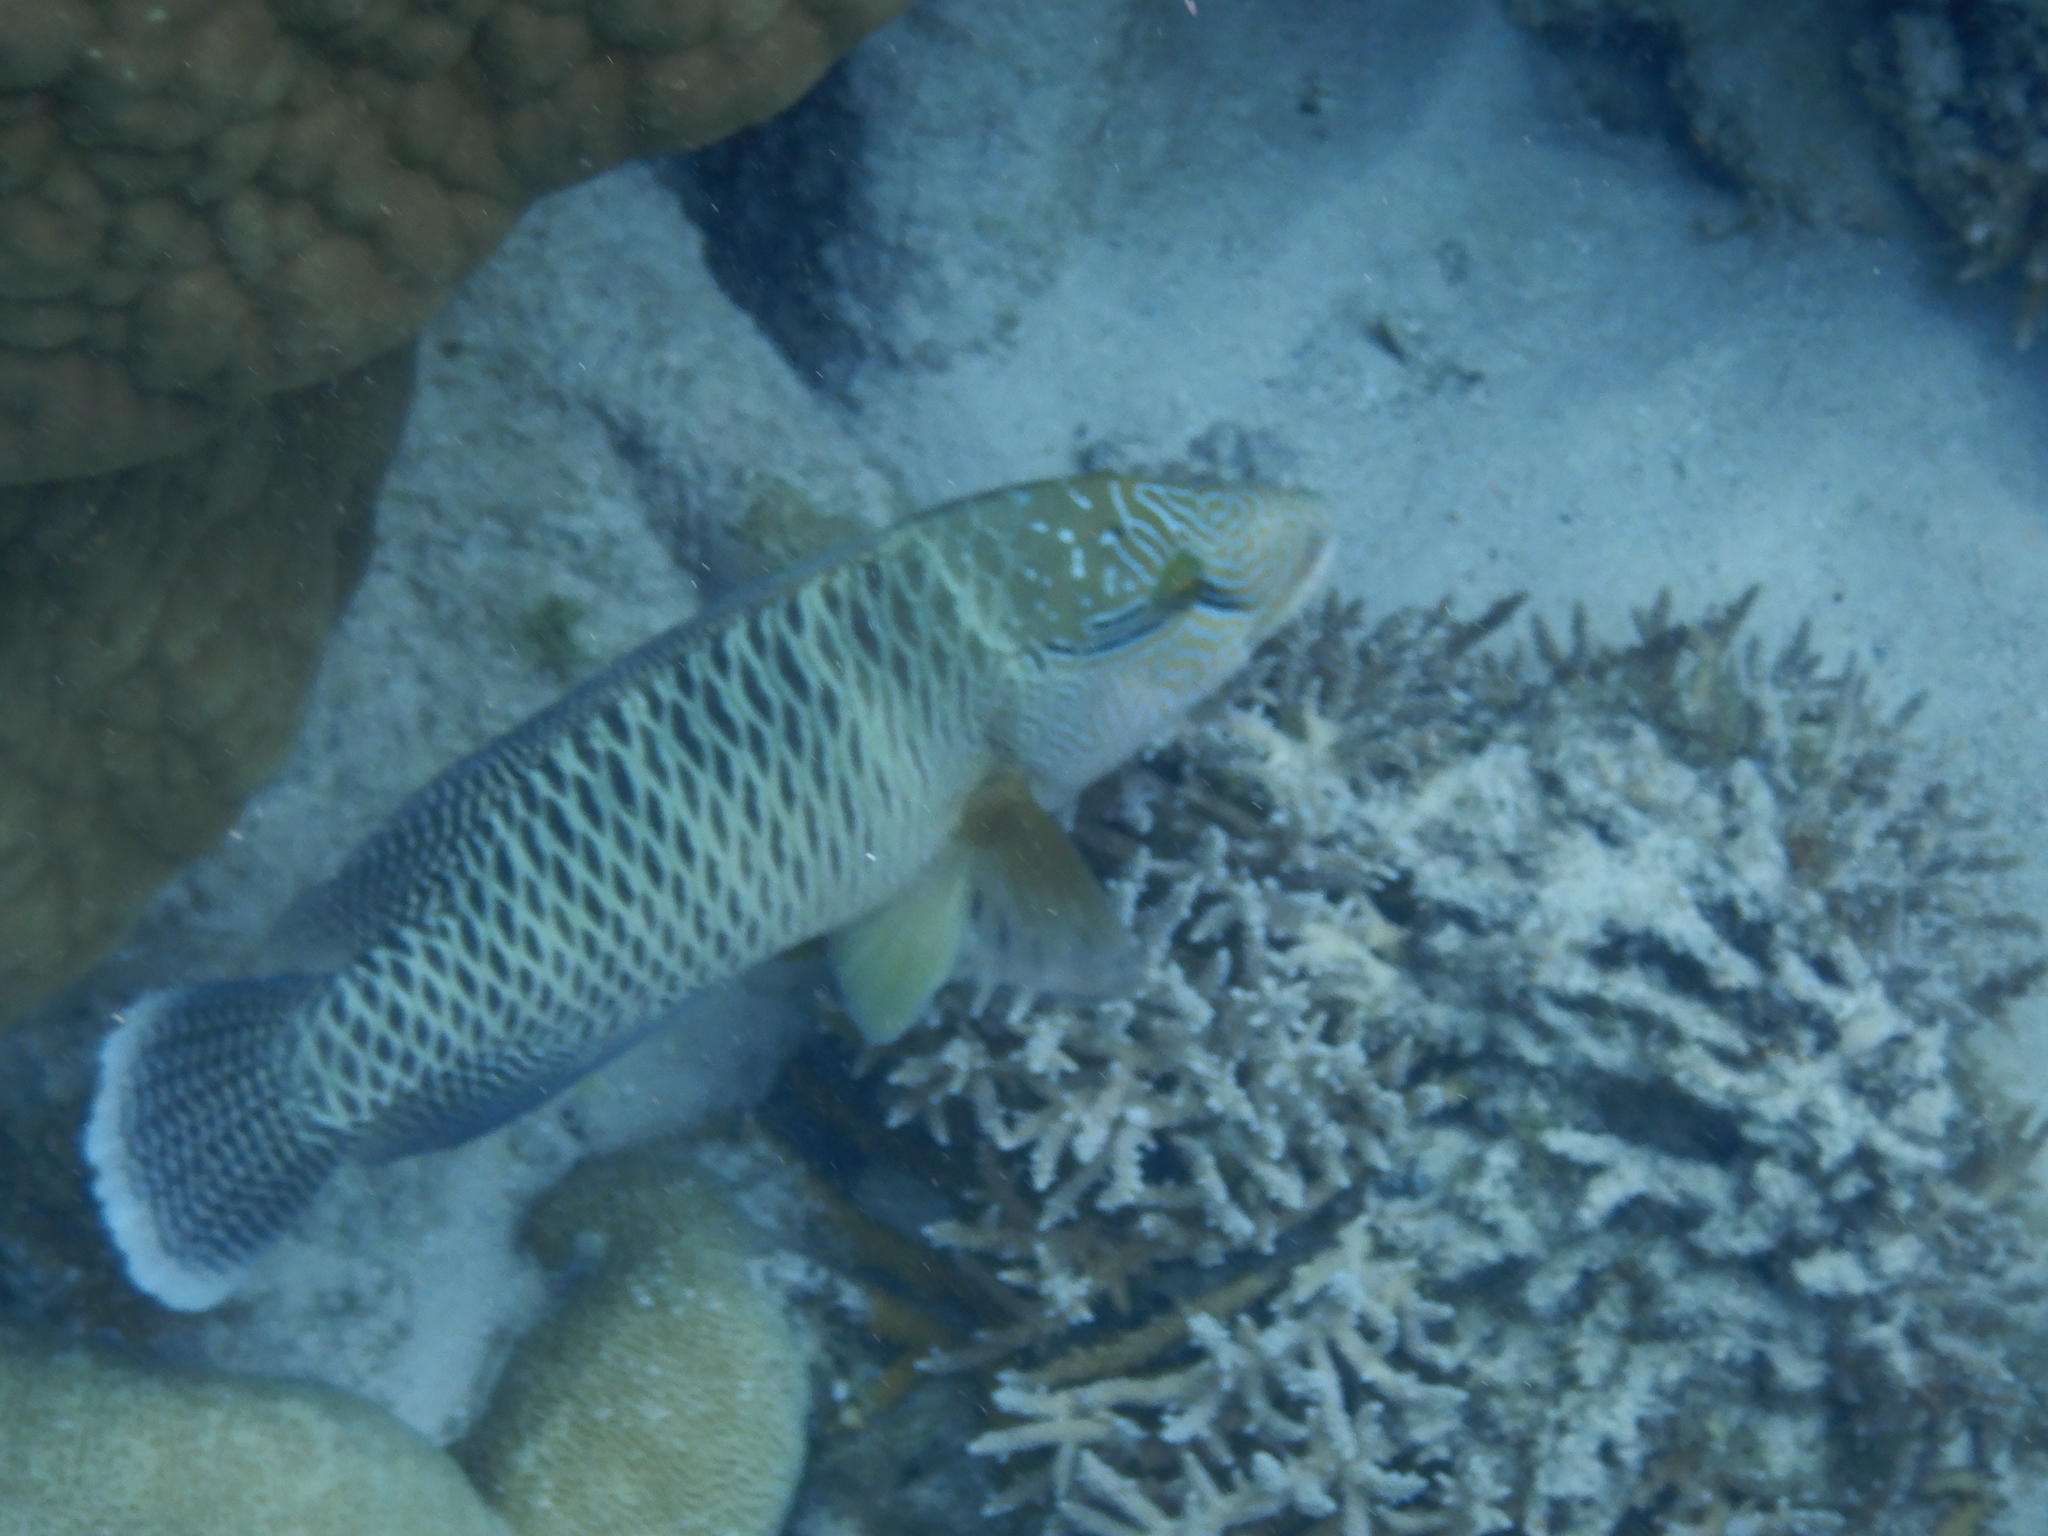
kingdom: Animalia
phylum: Chordata
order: Perciformes
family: Labridae
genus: Cheilinus
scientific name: Cheilinus undulatus
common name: Humphead wrasse
